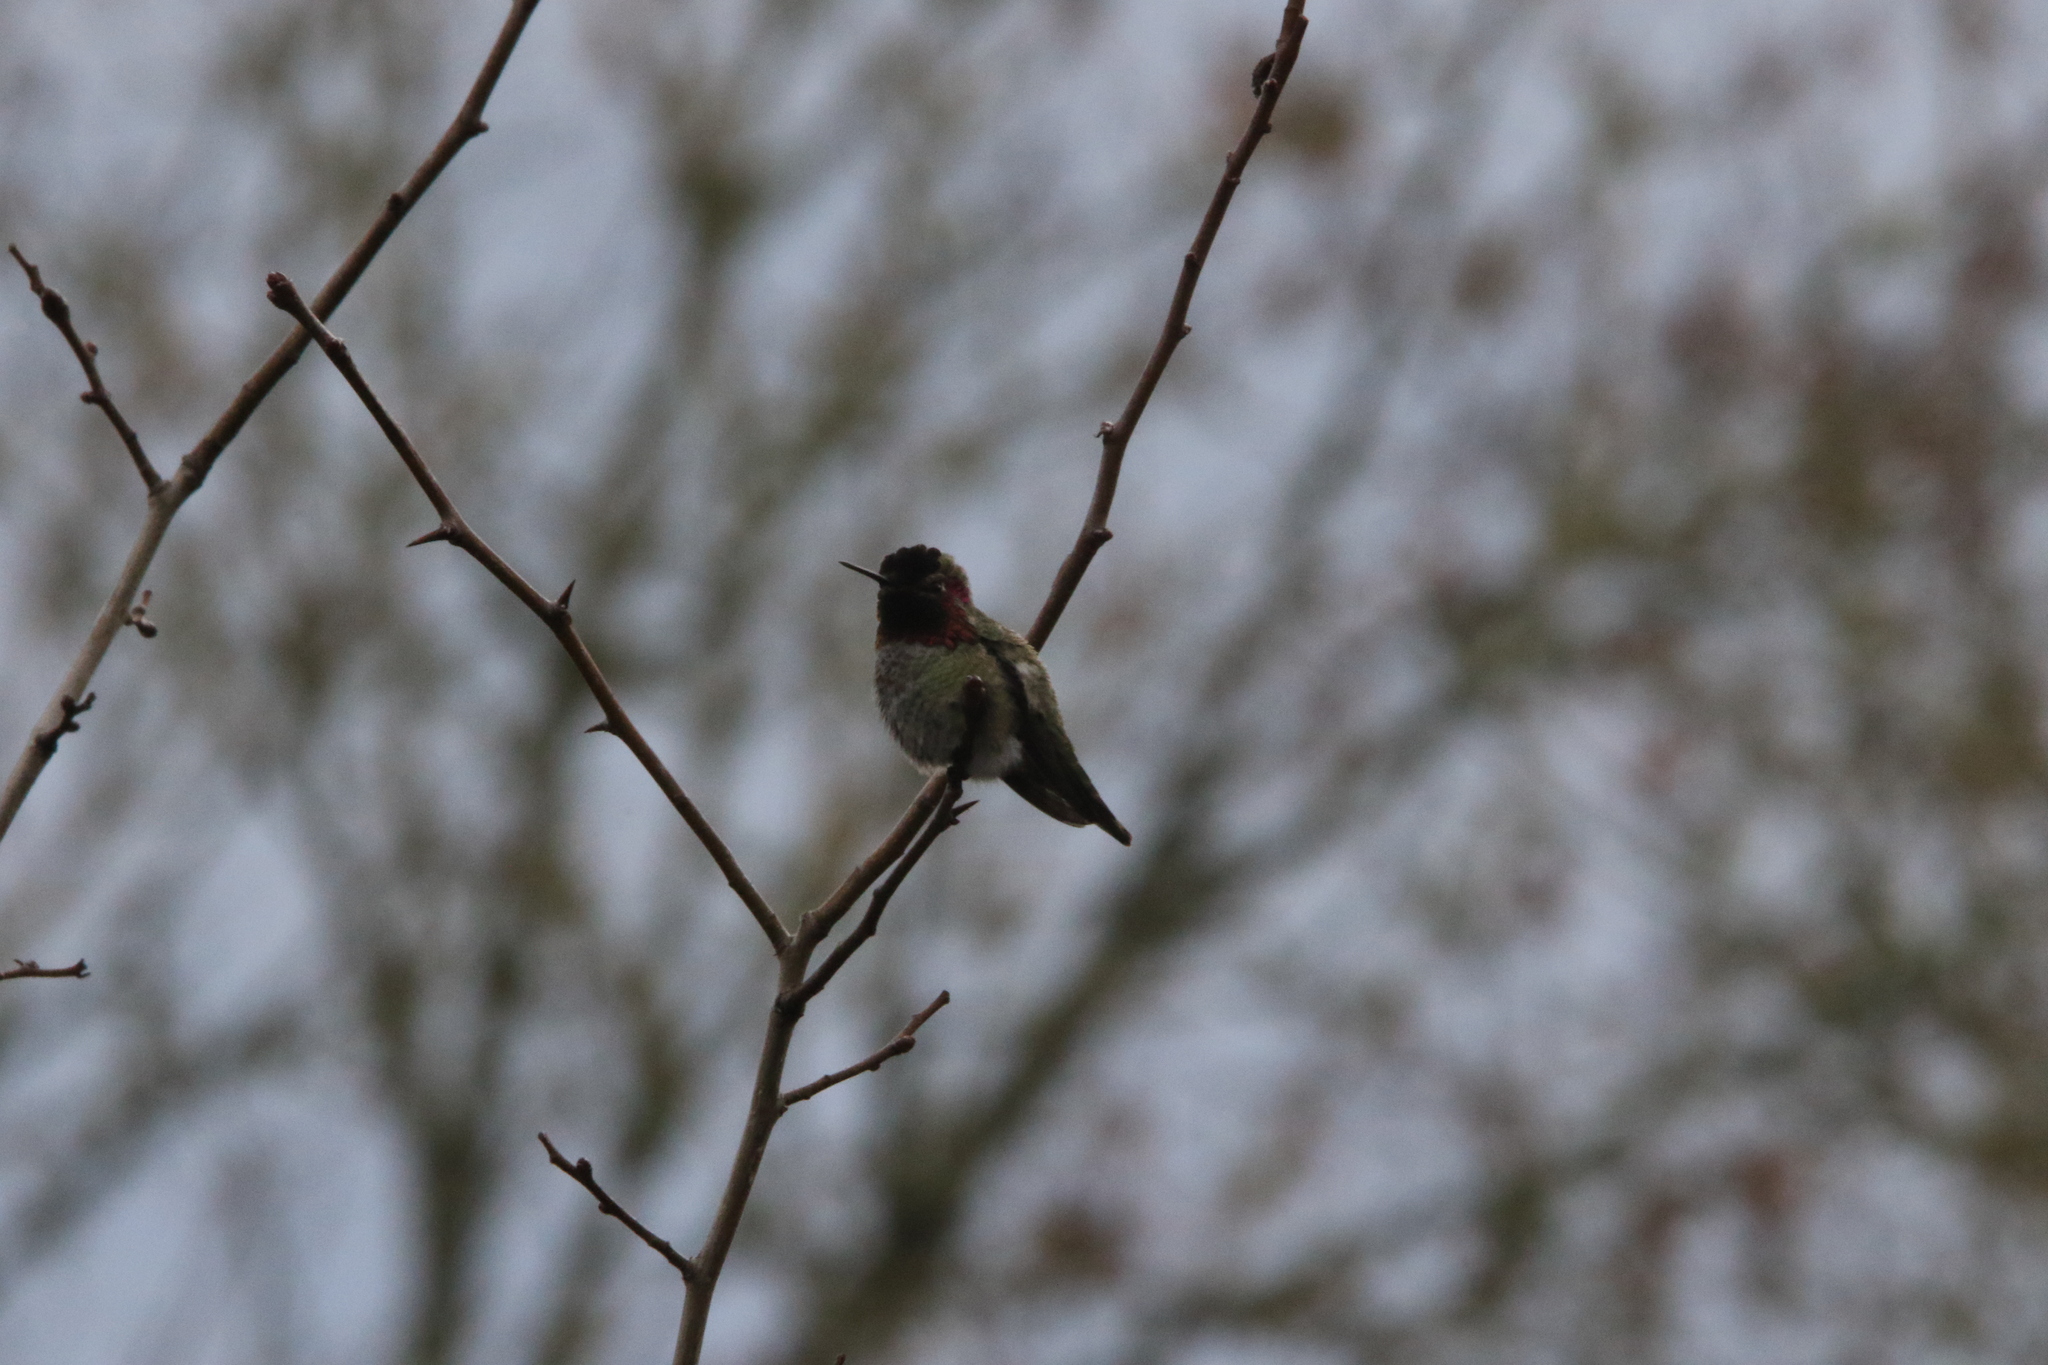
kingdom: Animalia
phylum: Chordata
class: Aves
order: Apodiformes
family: Trochilidae
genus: Calypte
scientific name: Calypte anna
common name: Anna's hummingbird
